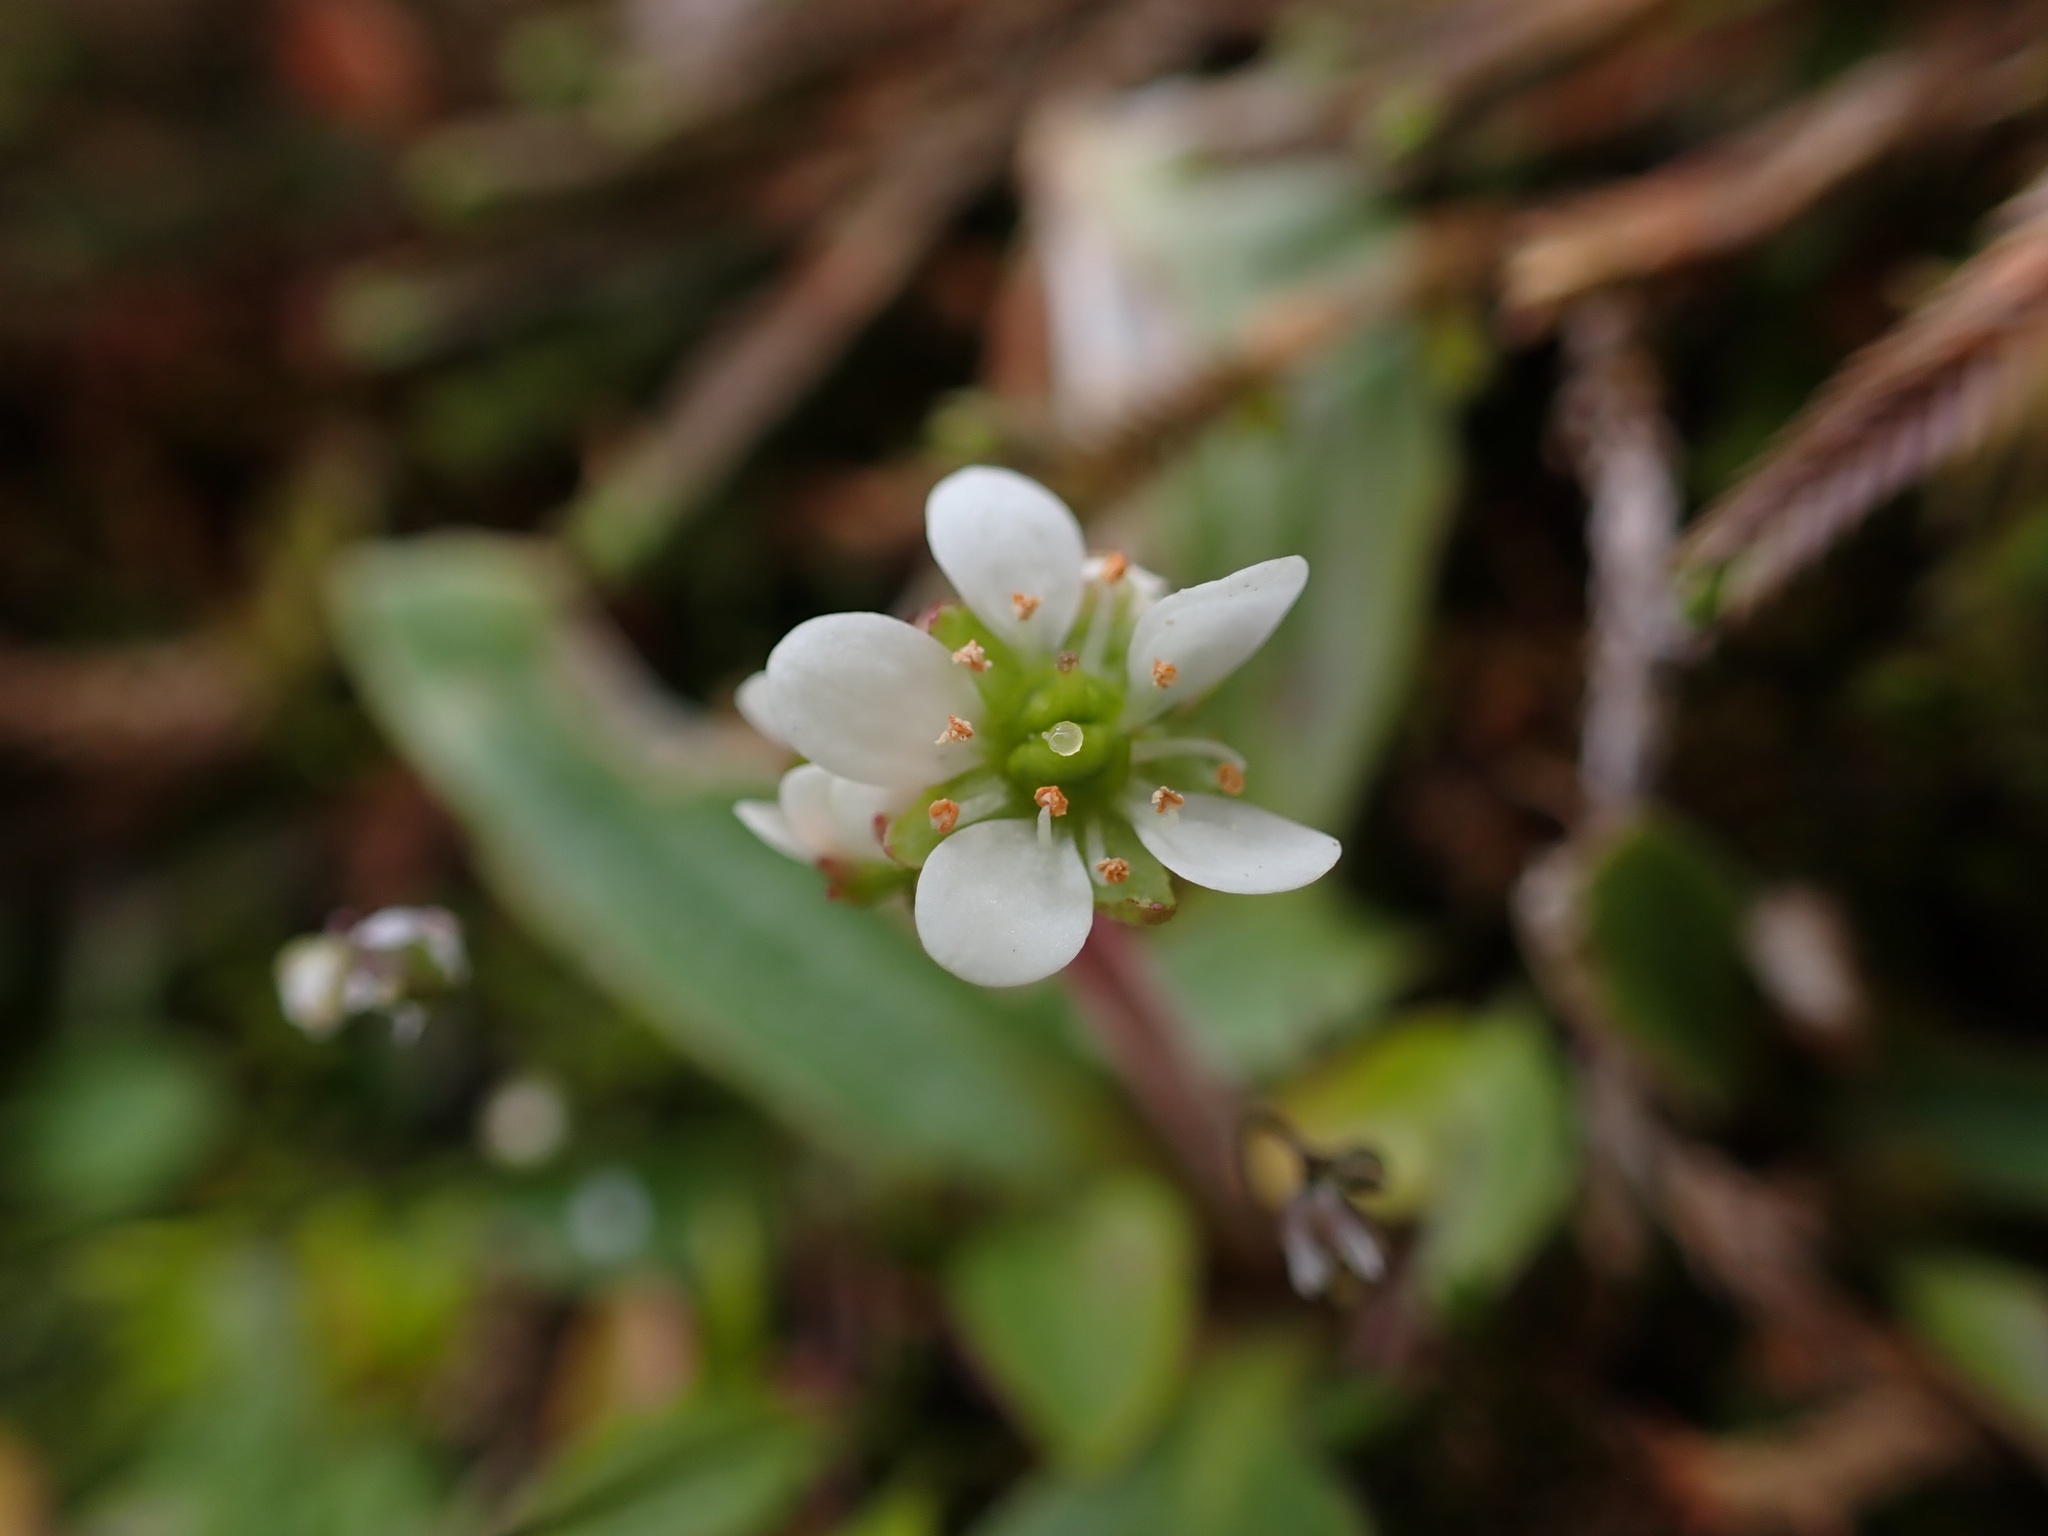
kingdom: Plantae
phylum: Tracheophyta
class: Magnoliopsida
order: Saxifragales
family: Saxifragaceae
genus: Micranthes
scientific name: Micranthes integrifolia
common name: Wholeleaf saxifrage
